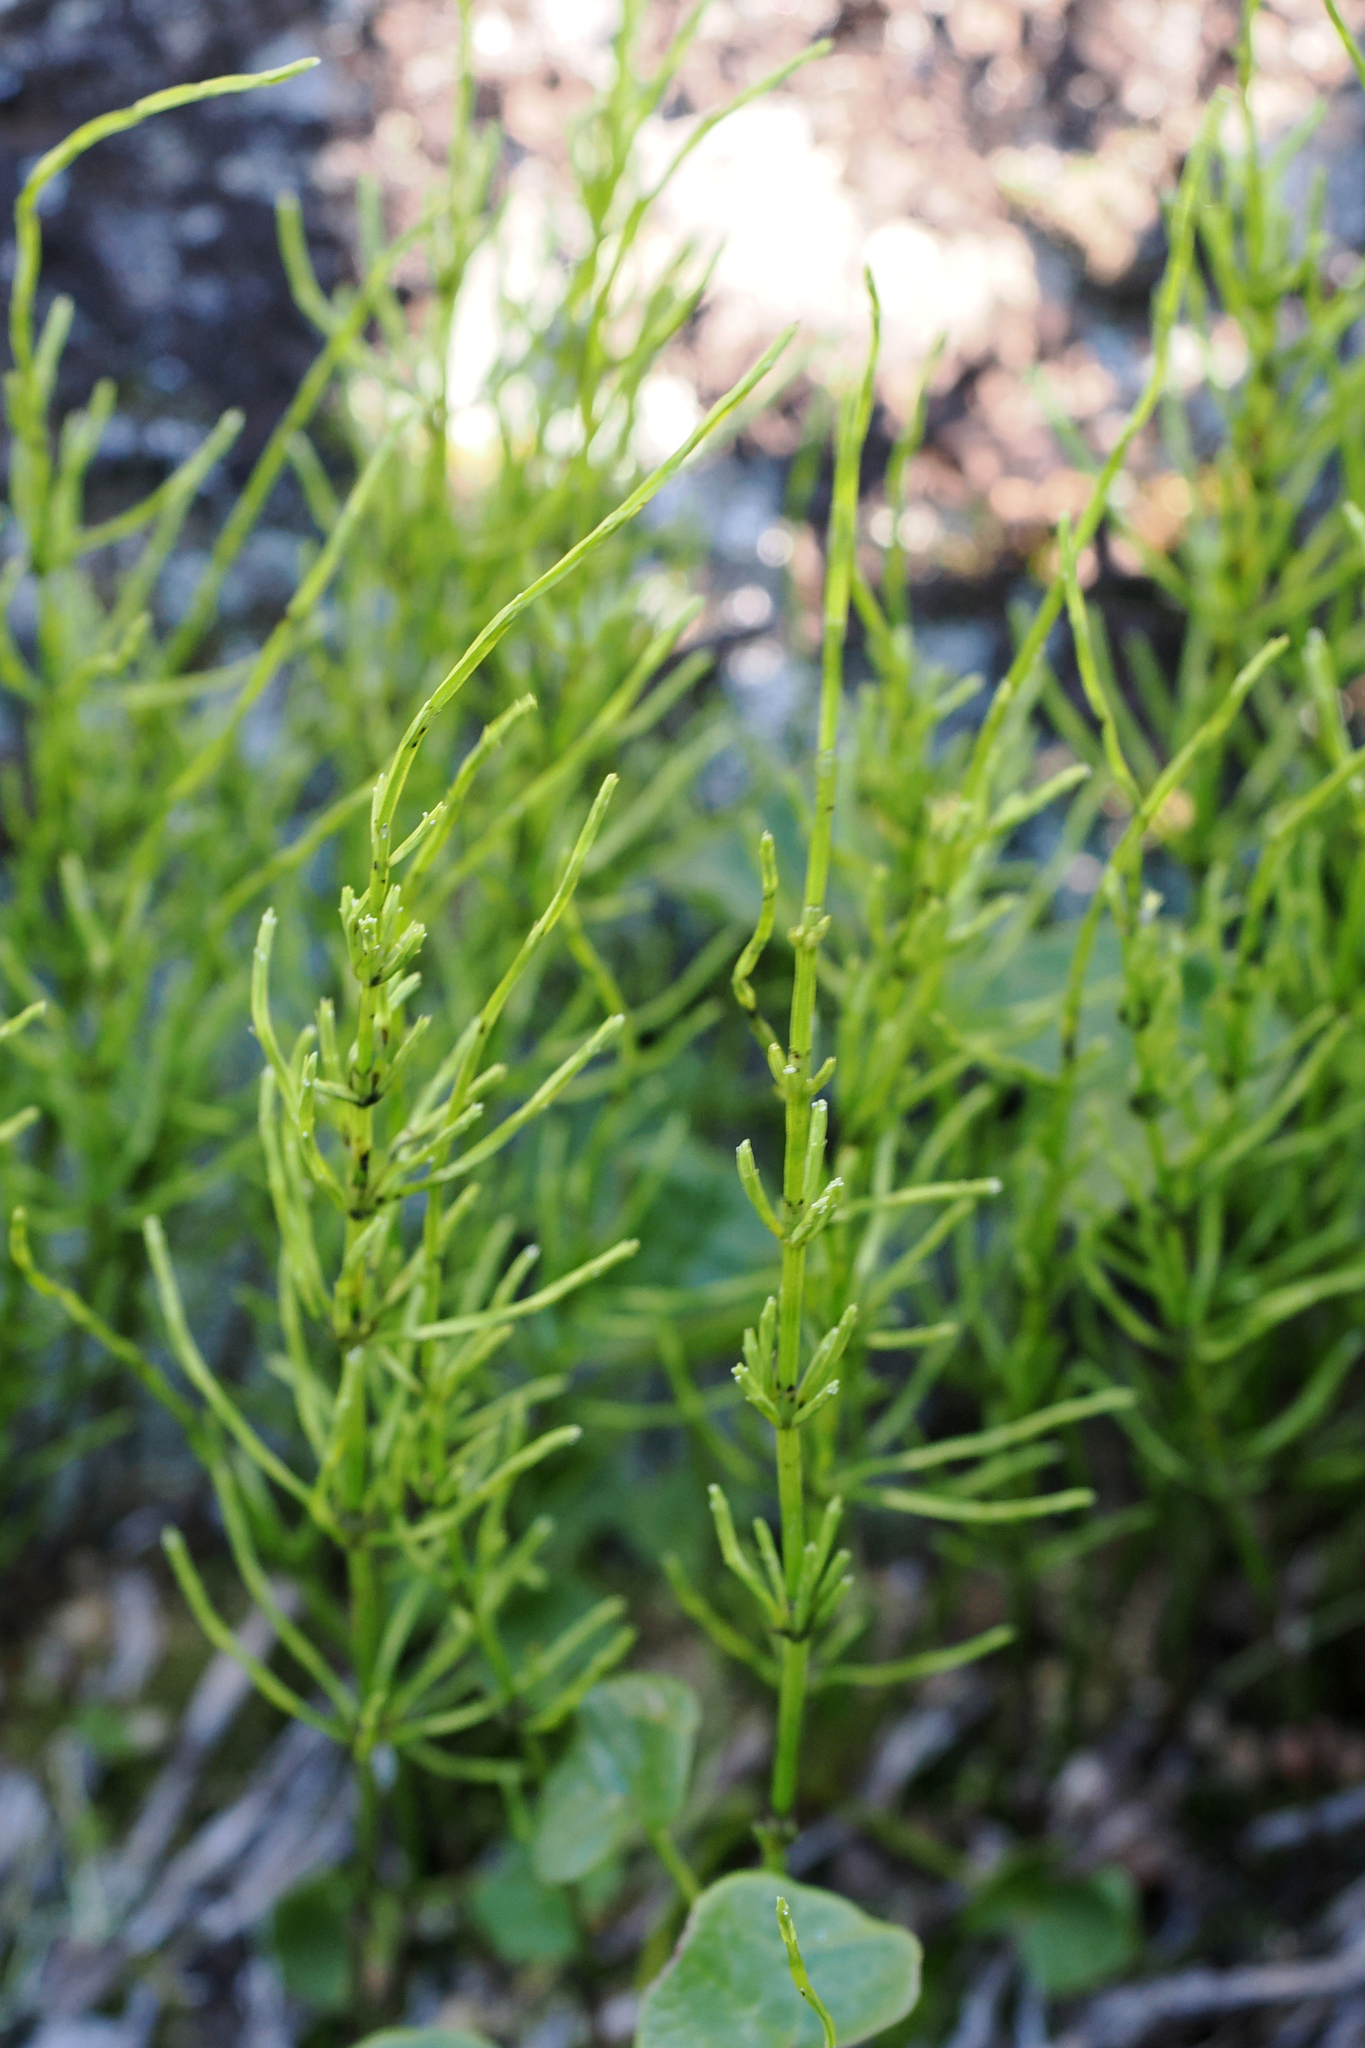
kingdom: Plantae
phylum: Tracheophyta
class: Polypodiopsida
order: Equisetales
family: Equisetaceae
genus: Equisetum
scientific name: Equisetum arvense
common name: Field horsetail
